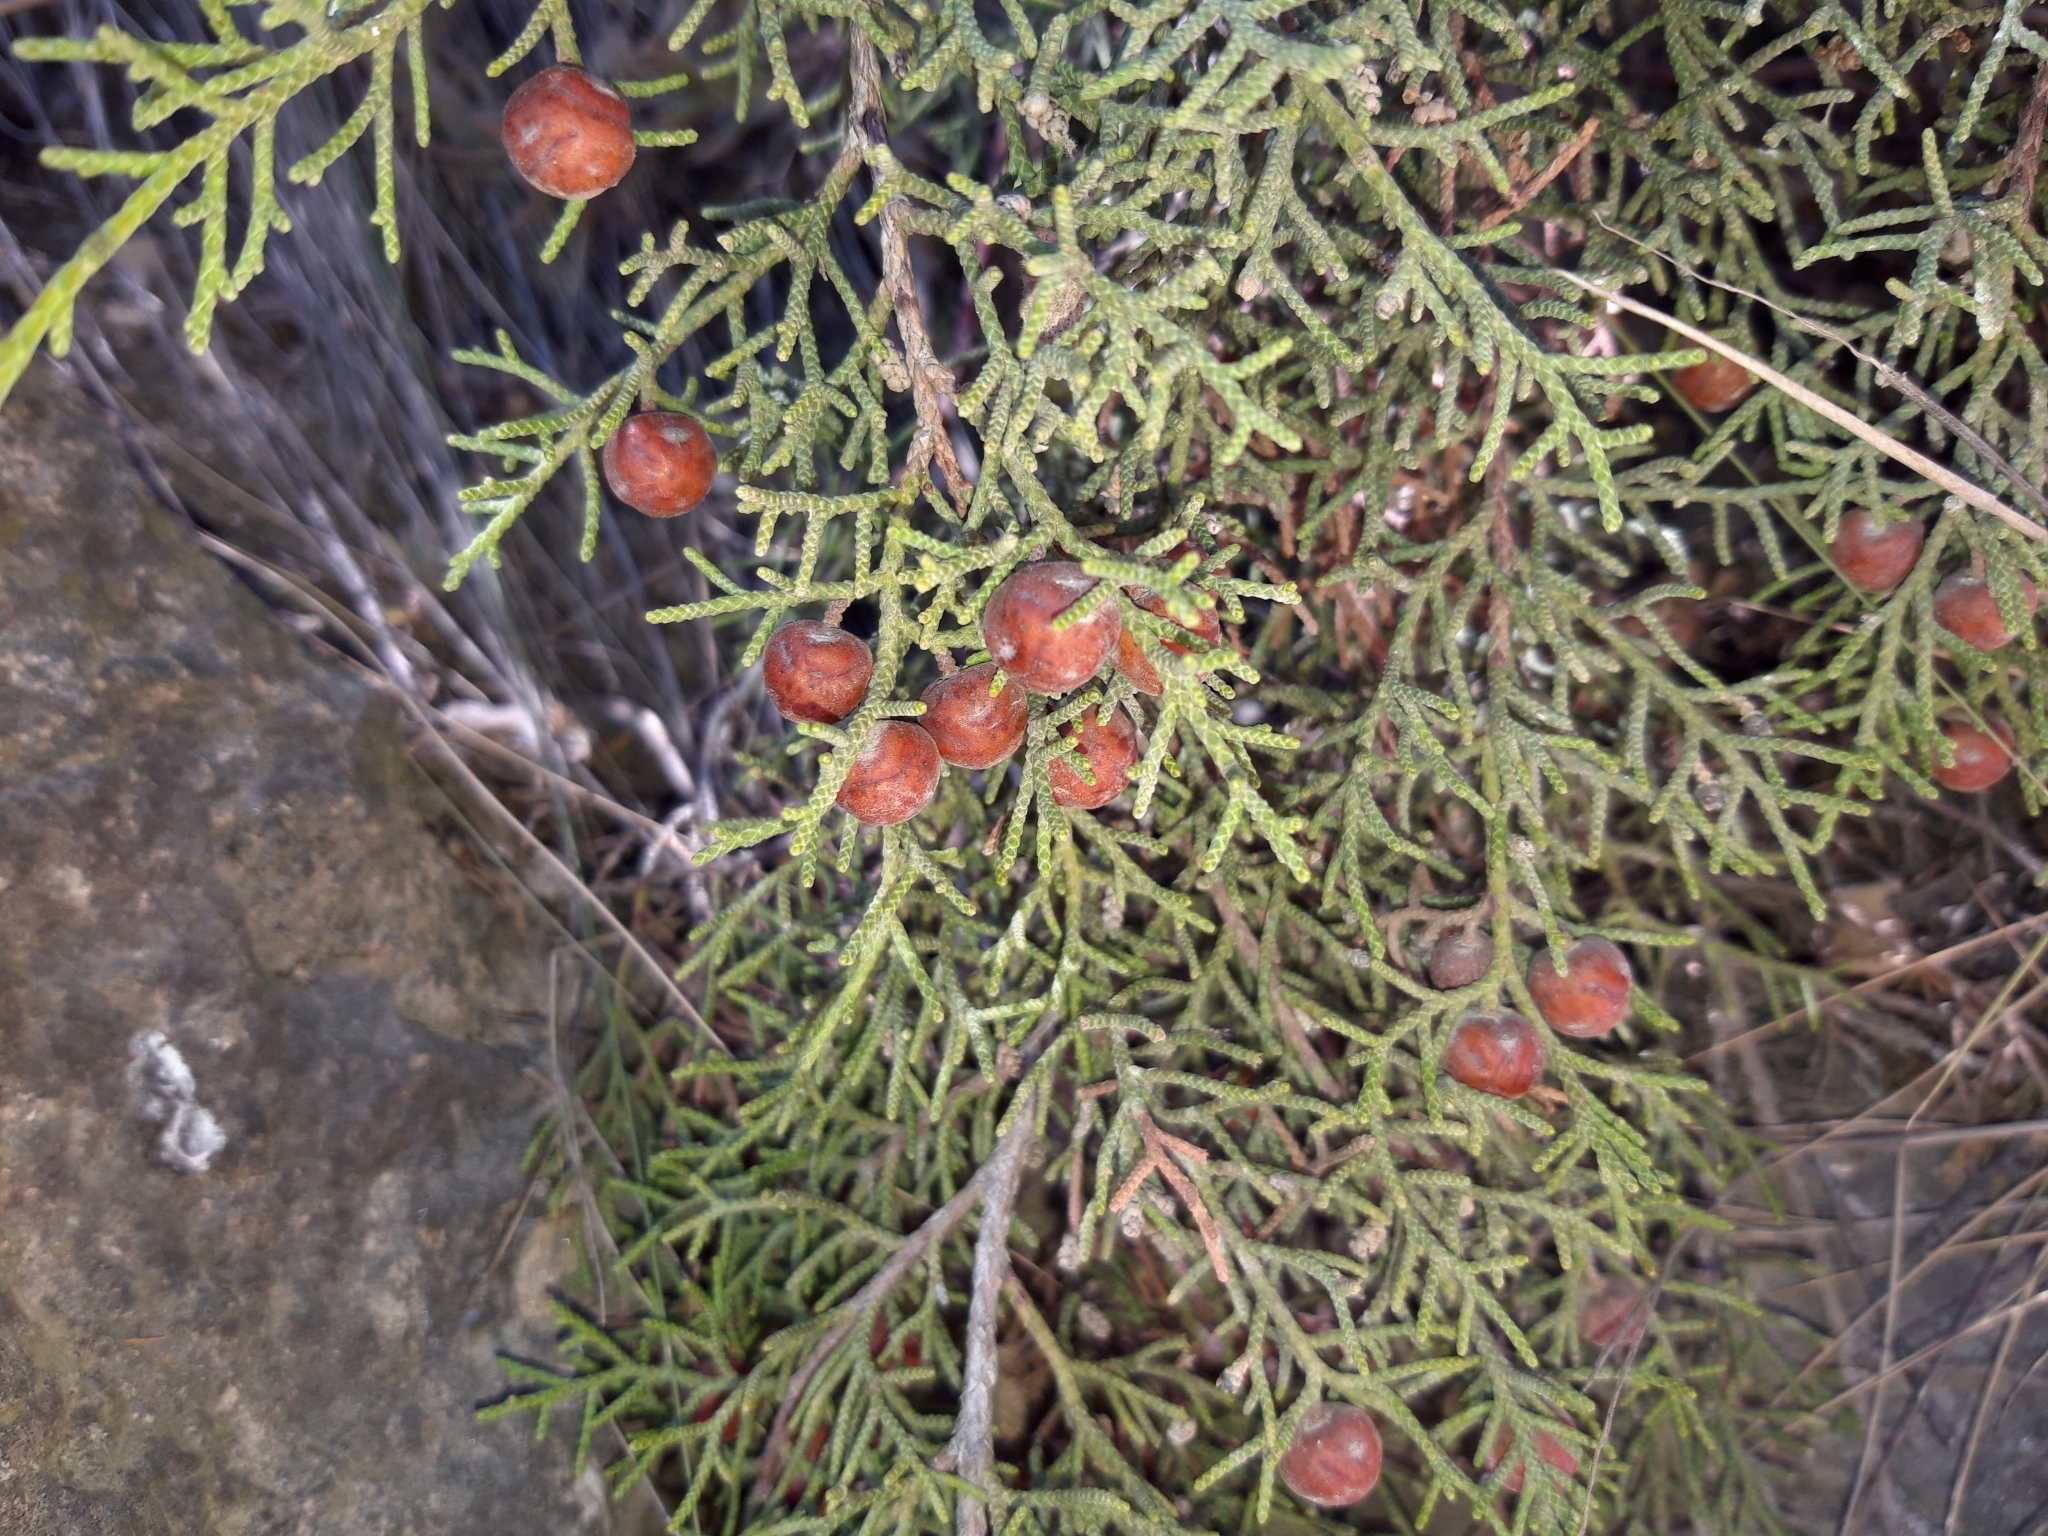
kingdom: Plantae
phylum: Tracheophyta
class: Pinopsida
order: Pinales
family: Cupressaceae
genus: Juniperus
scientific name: Juniperus phoenicea
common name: Phoenician juniper
